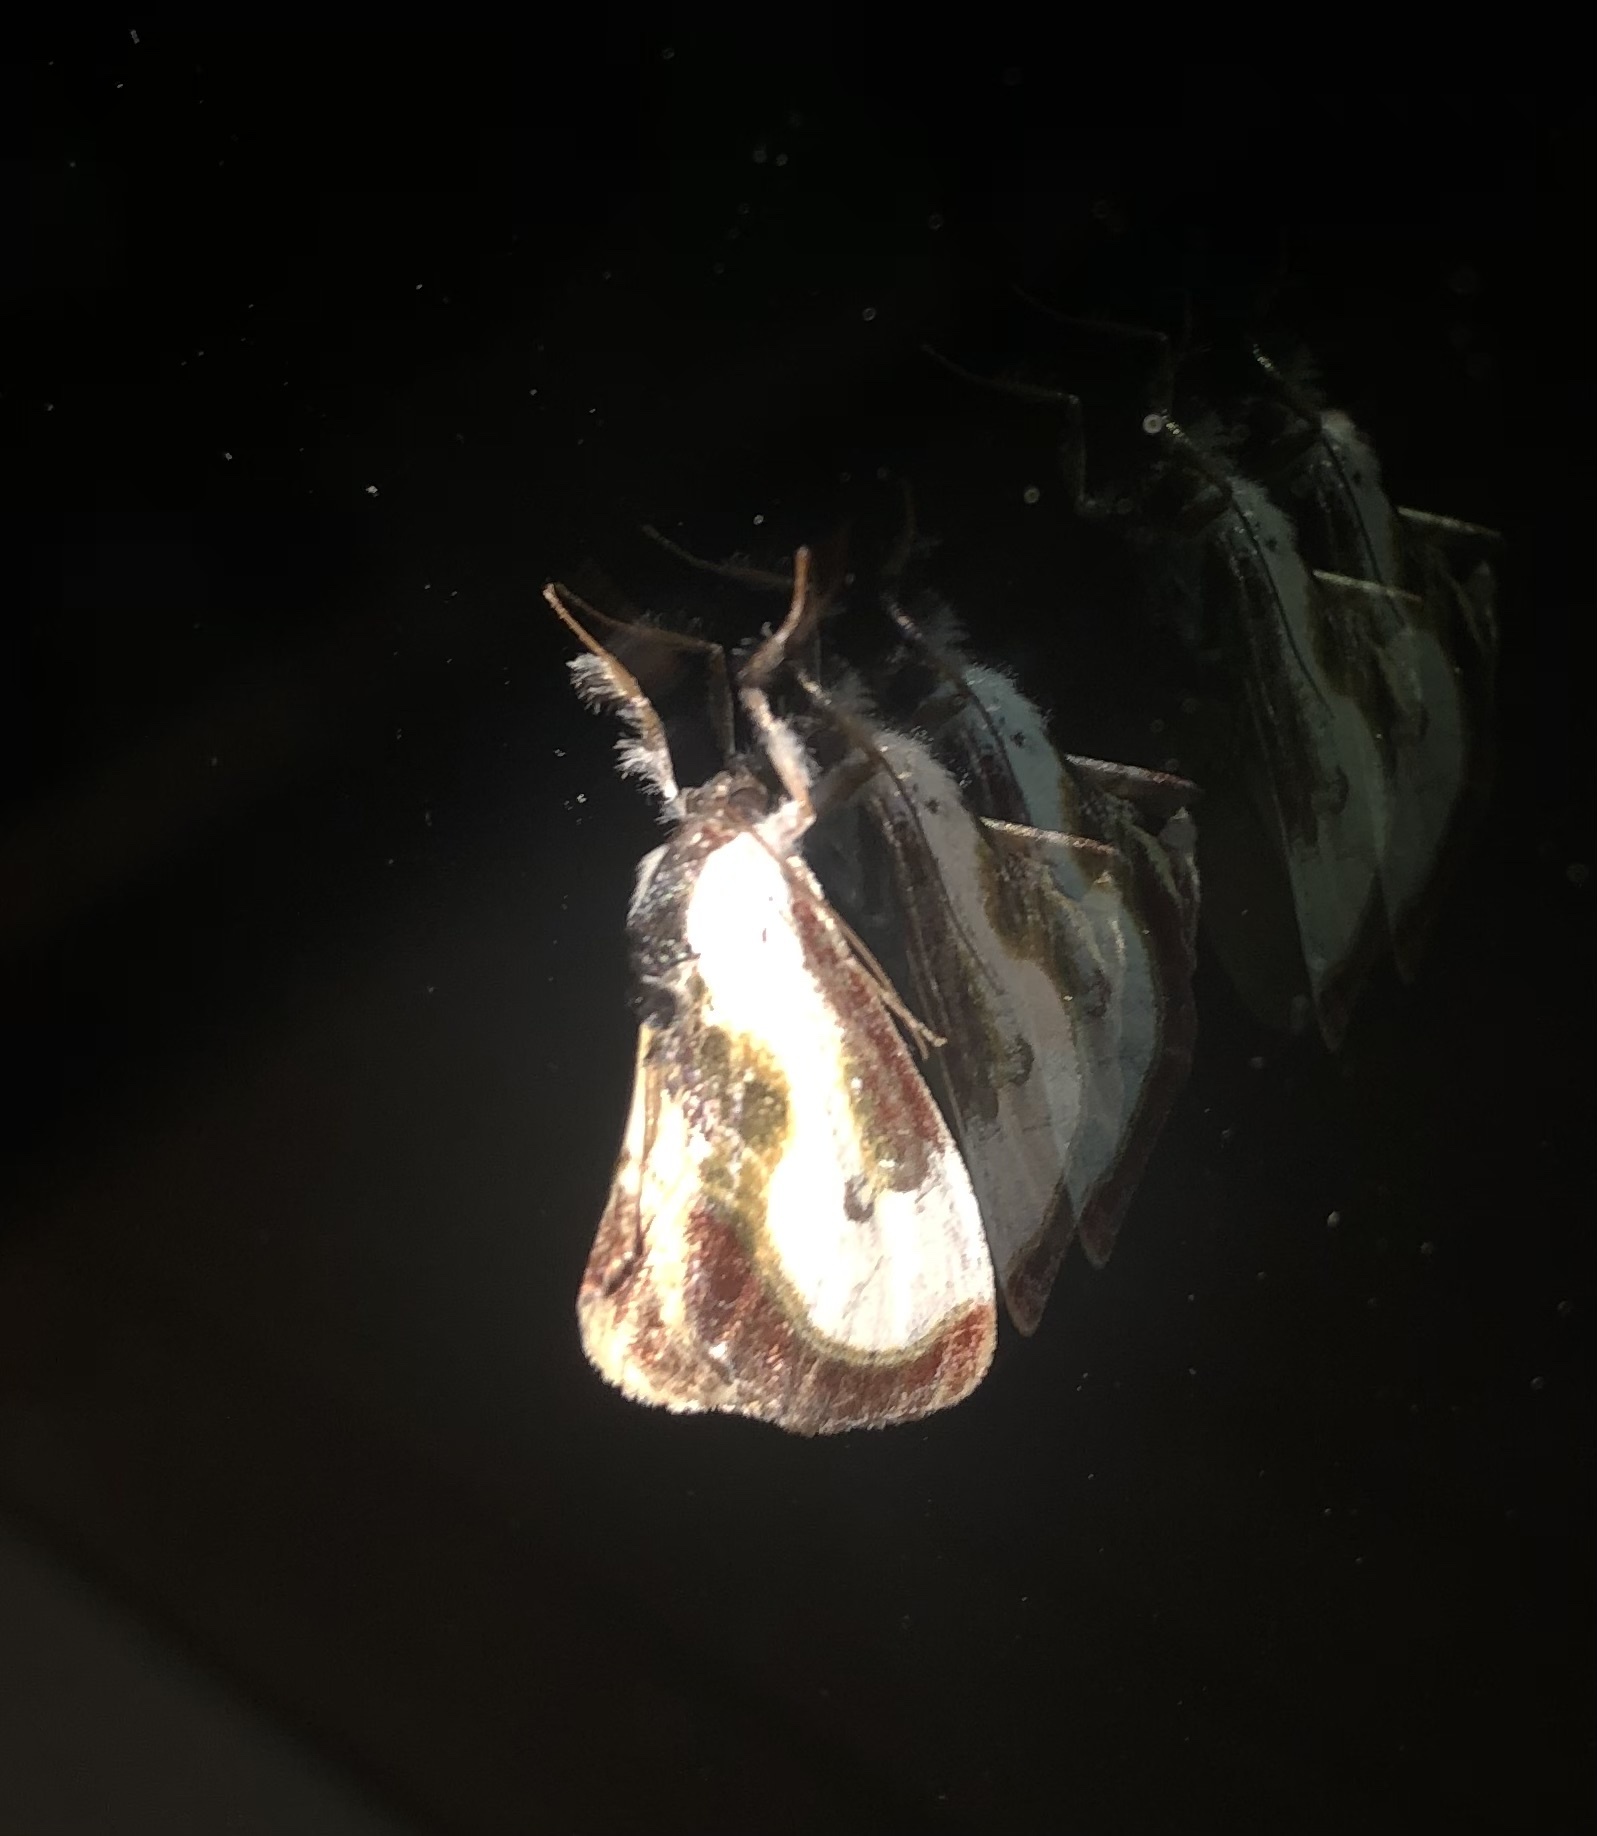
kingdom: Animalia
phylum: Arthropoda
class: Insecta
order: Lepidoptera
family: Noctuidae
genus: Eudryas
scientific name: Eudryas grata
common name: Beautiful wood-nymph
